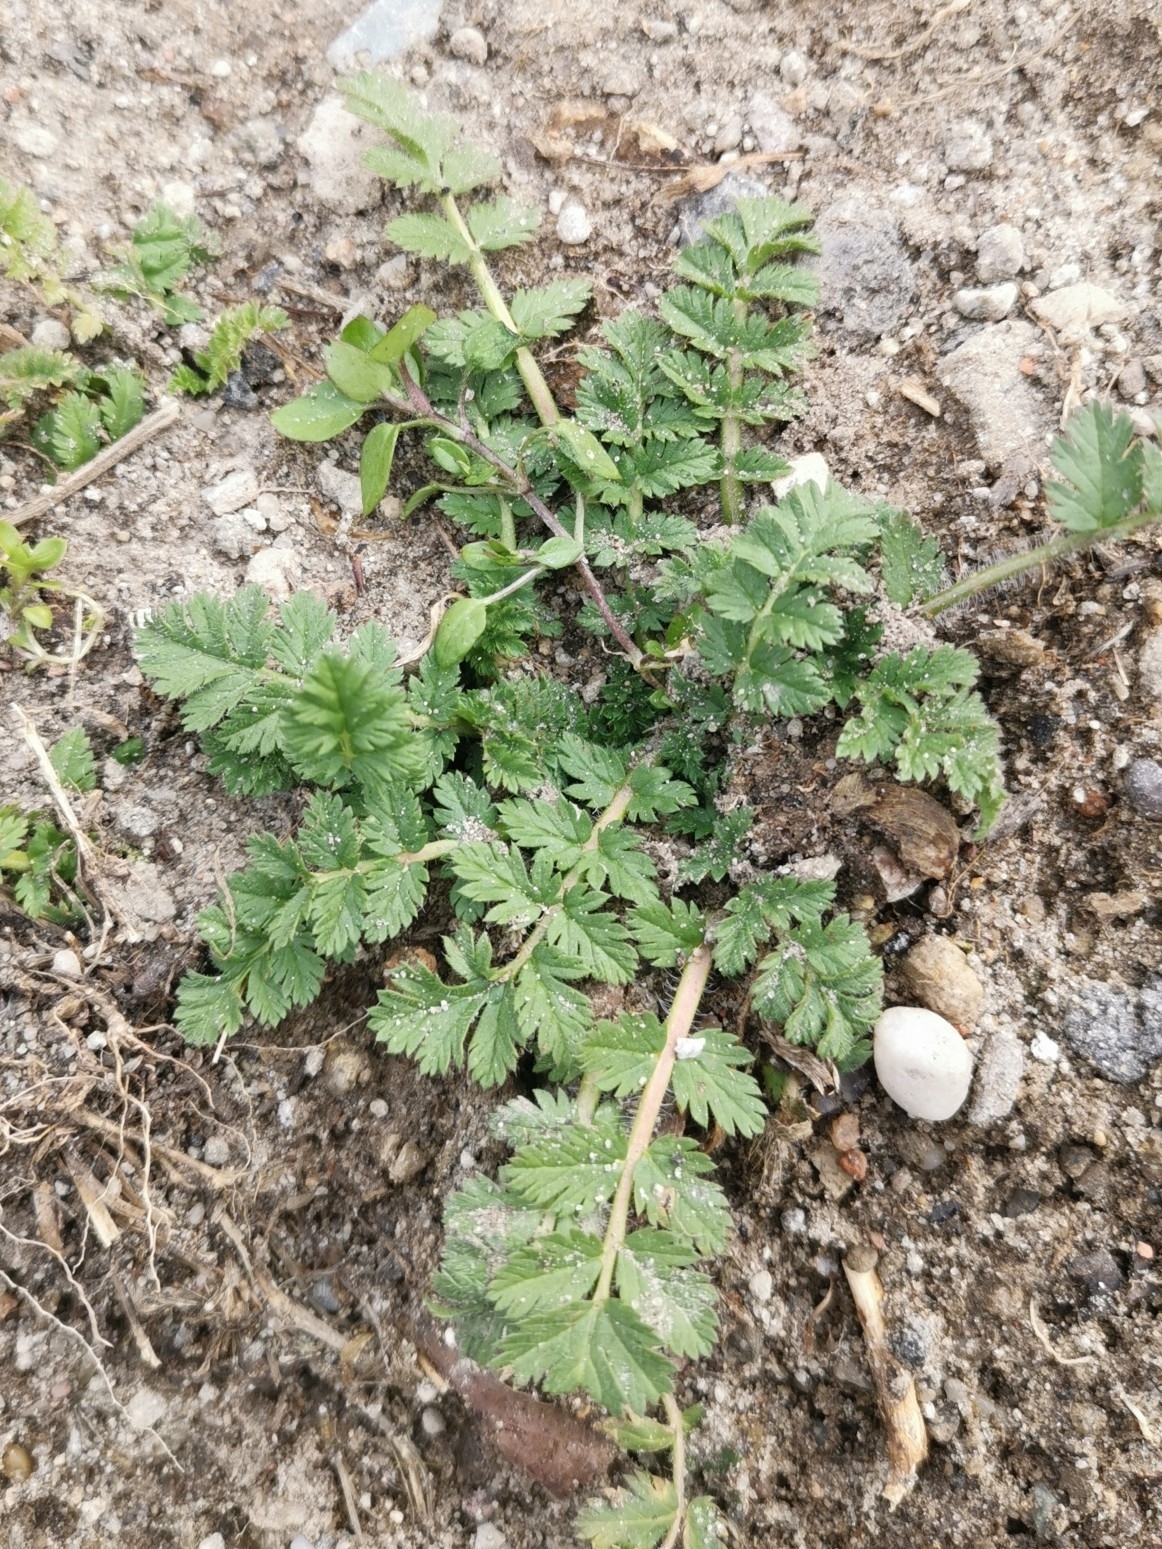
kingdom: Plantae
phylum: Tracheophyta
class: Magnoliopsida
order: Geraniales
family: Geraniaceae
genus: Erodium
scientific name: Erodium cicutarium
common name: Common stork's-bill
